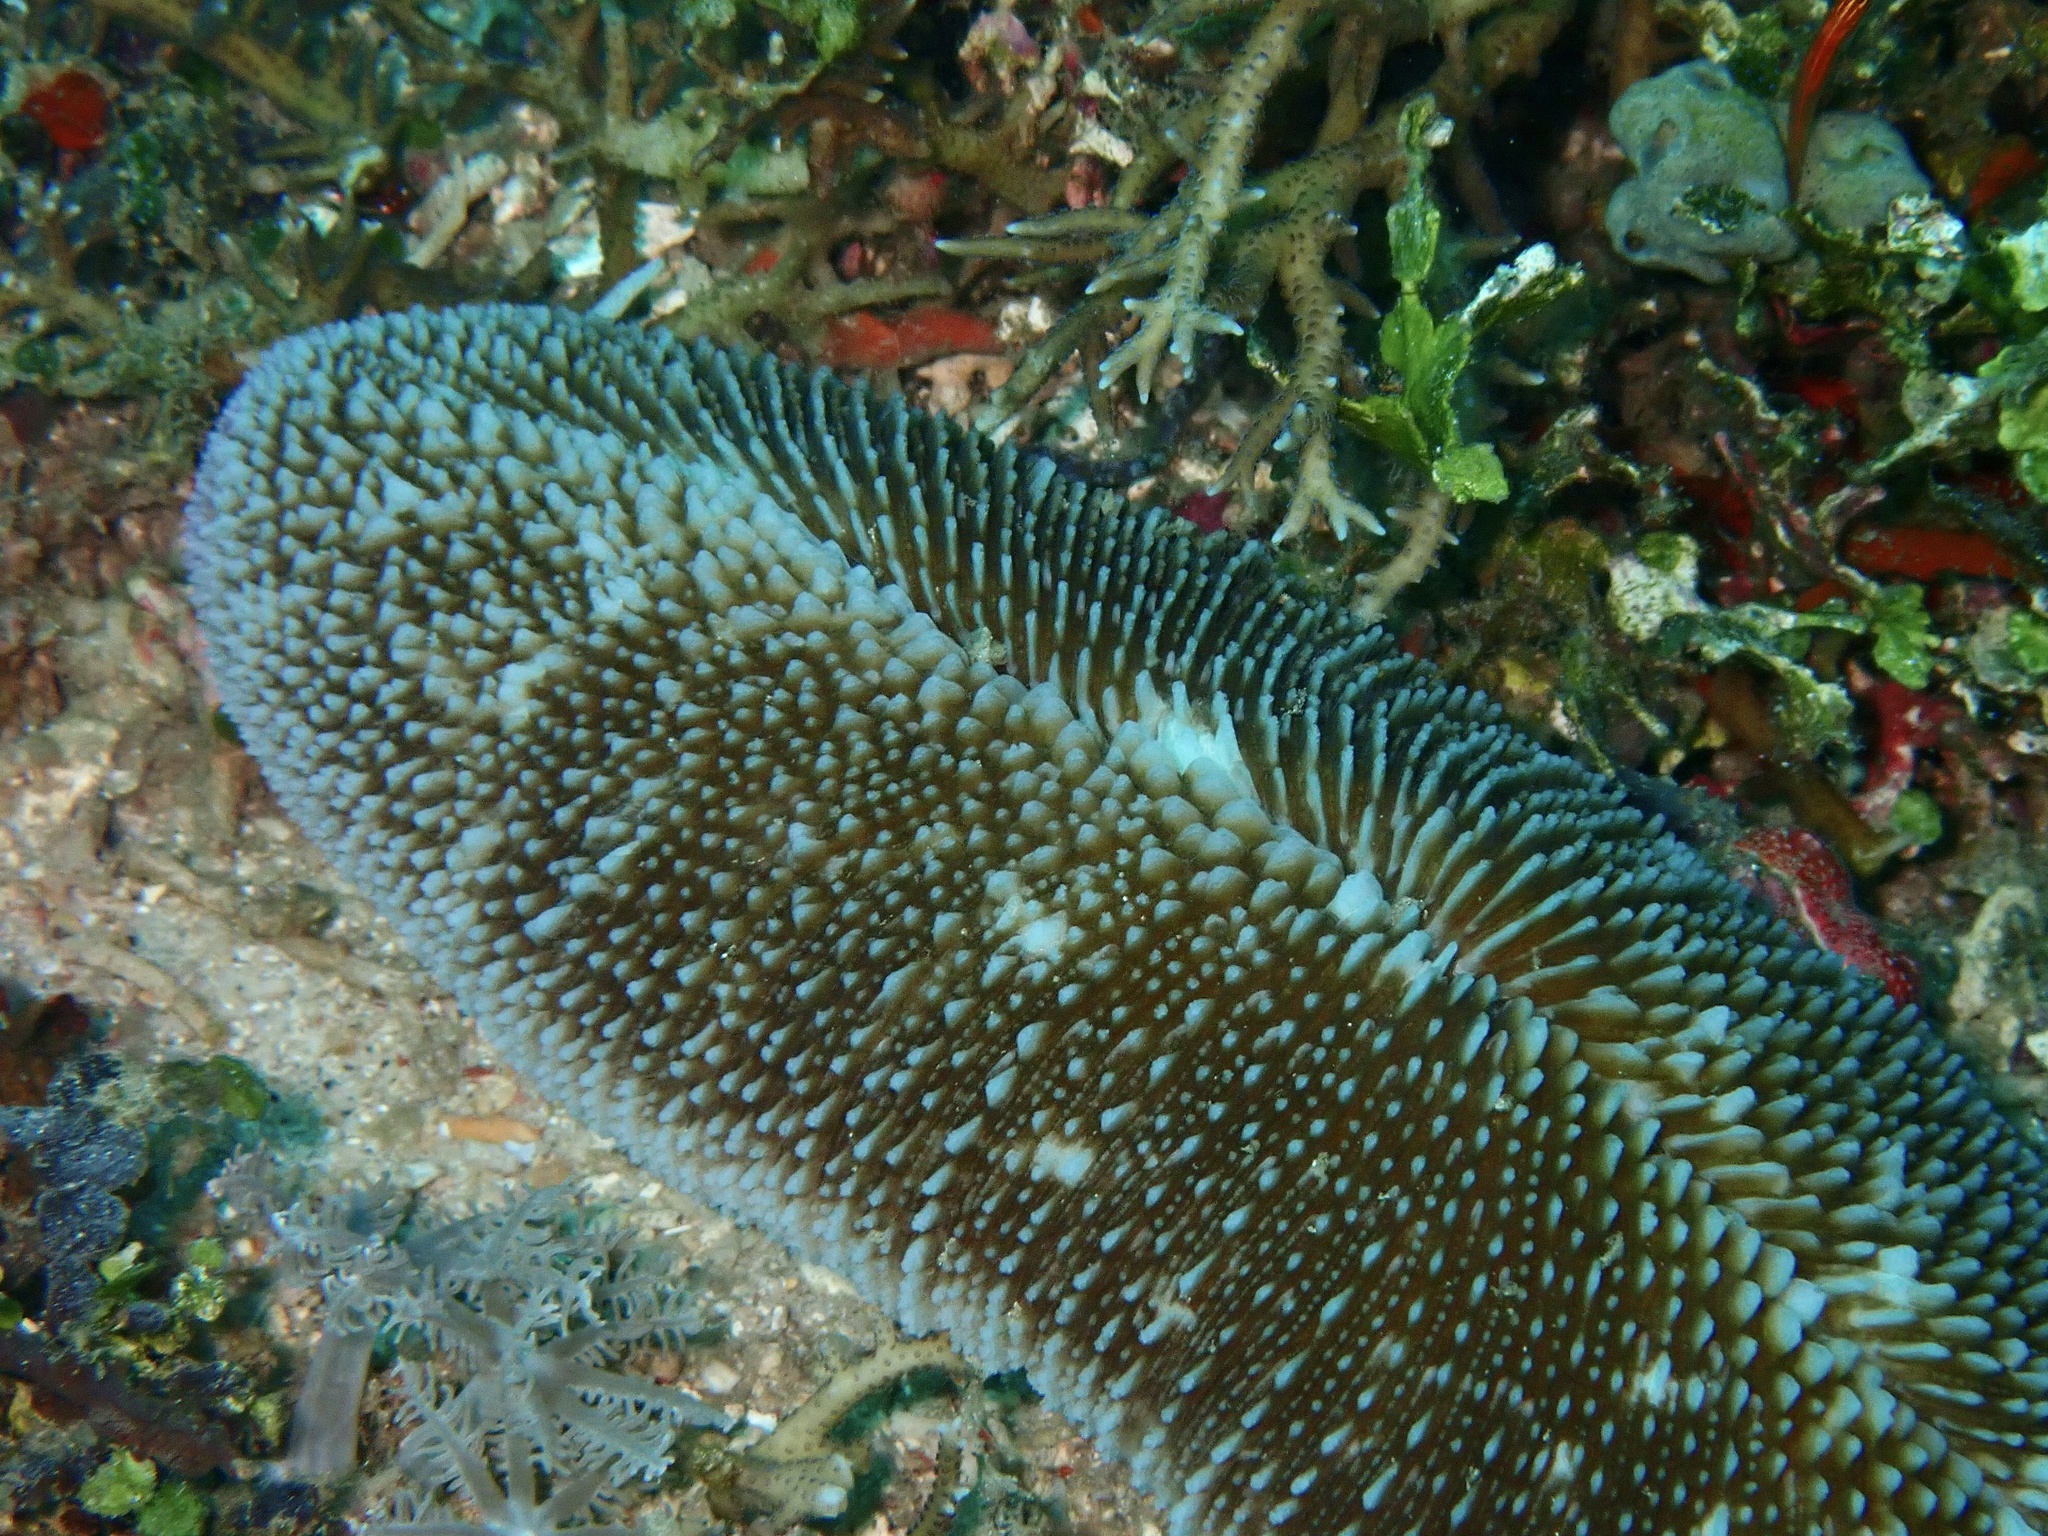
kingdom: Animalia
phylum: Cnidaria
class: Anthozoa
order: Scleractinia
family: Fungiidae
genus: Ctenactis
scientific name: Ctenactis crassa
